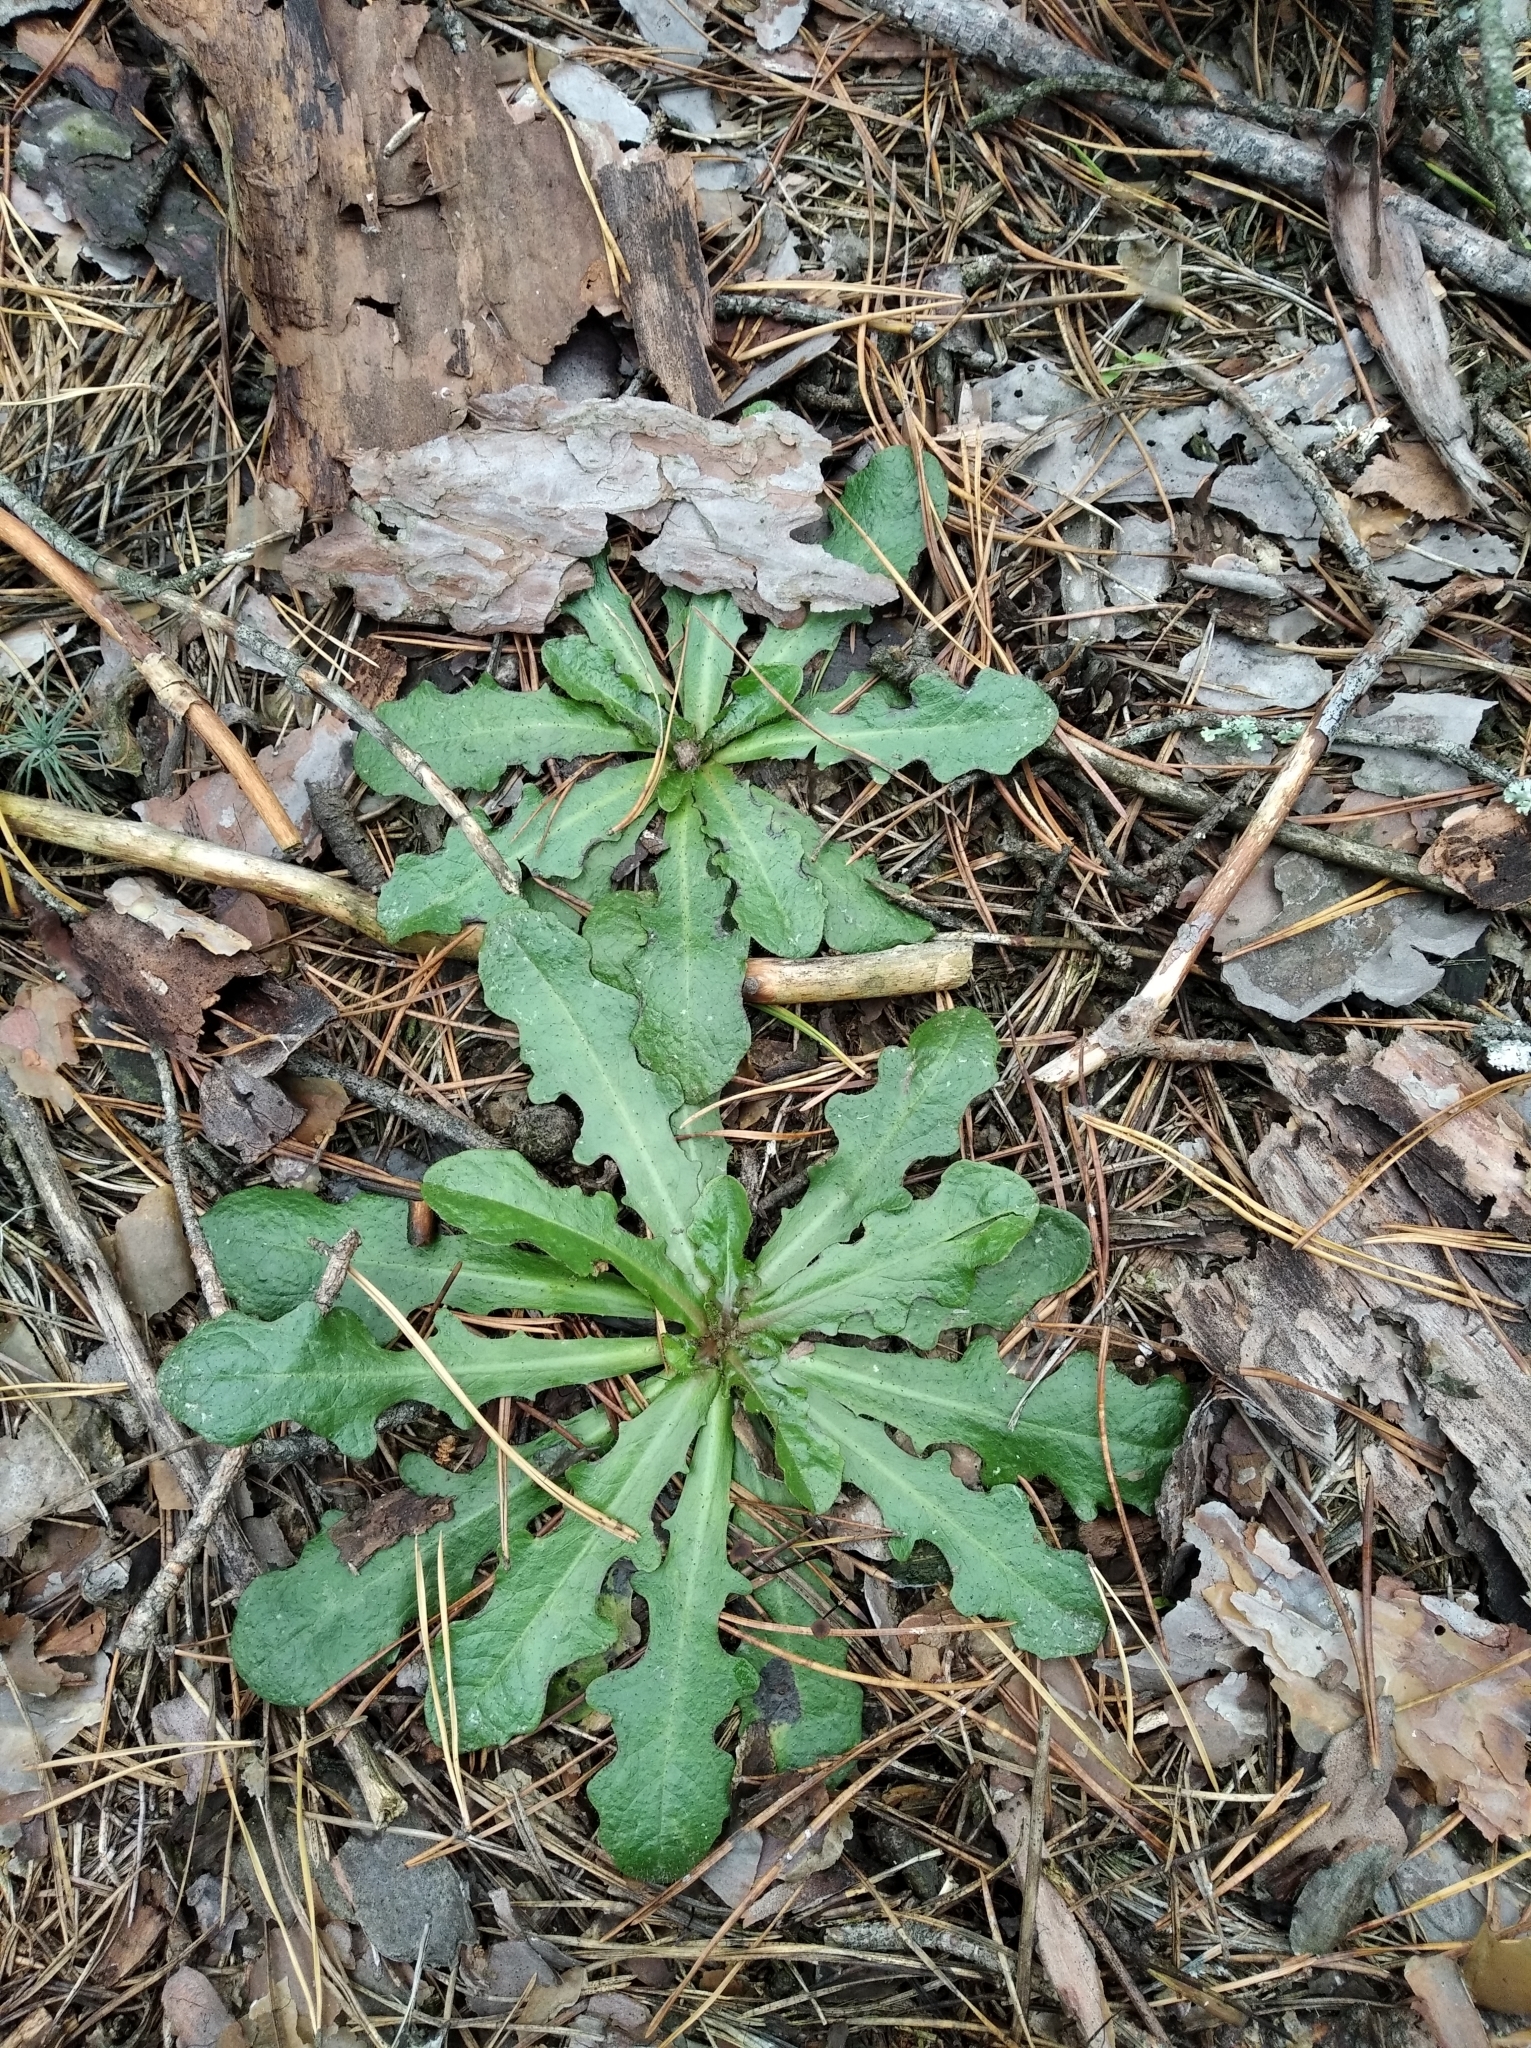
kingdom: Plantae
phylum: Tracheophyta
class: Magnoliopsida
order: Asterales
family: Asteraceae
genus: Hypochaeris
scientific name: Hypochaeris radicata
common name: Flatweed
